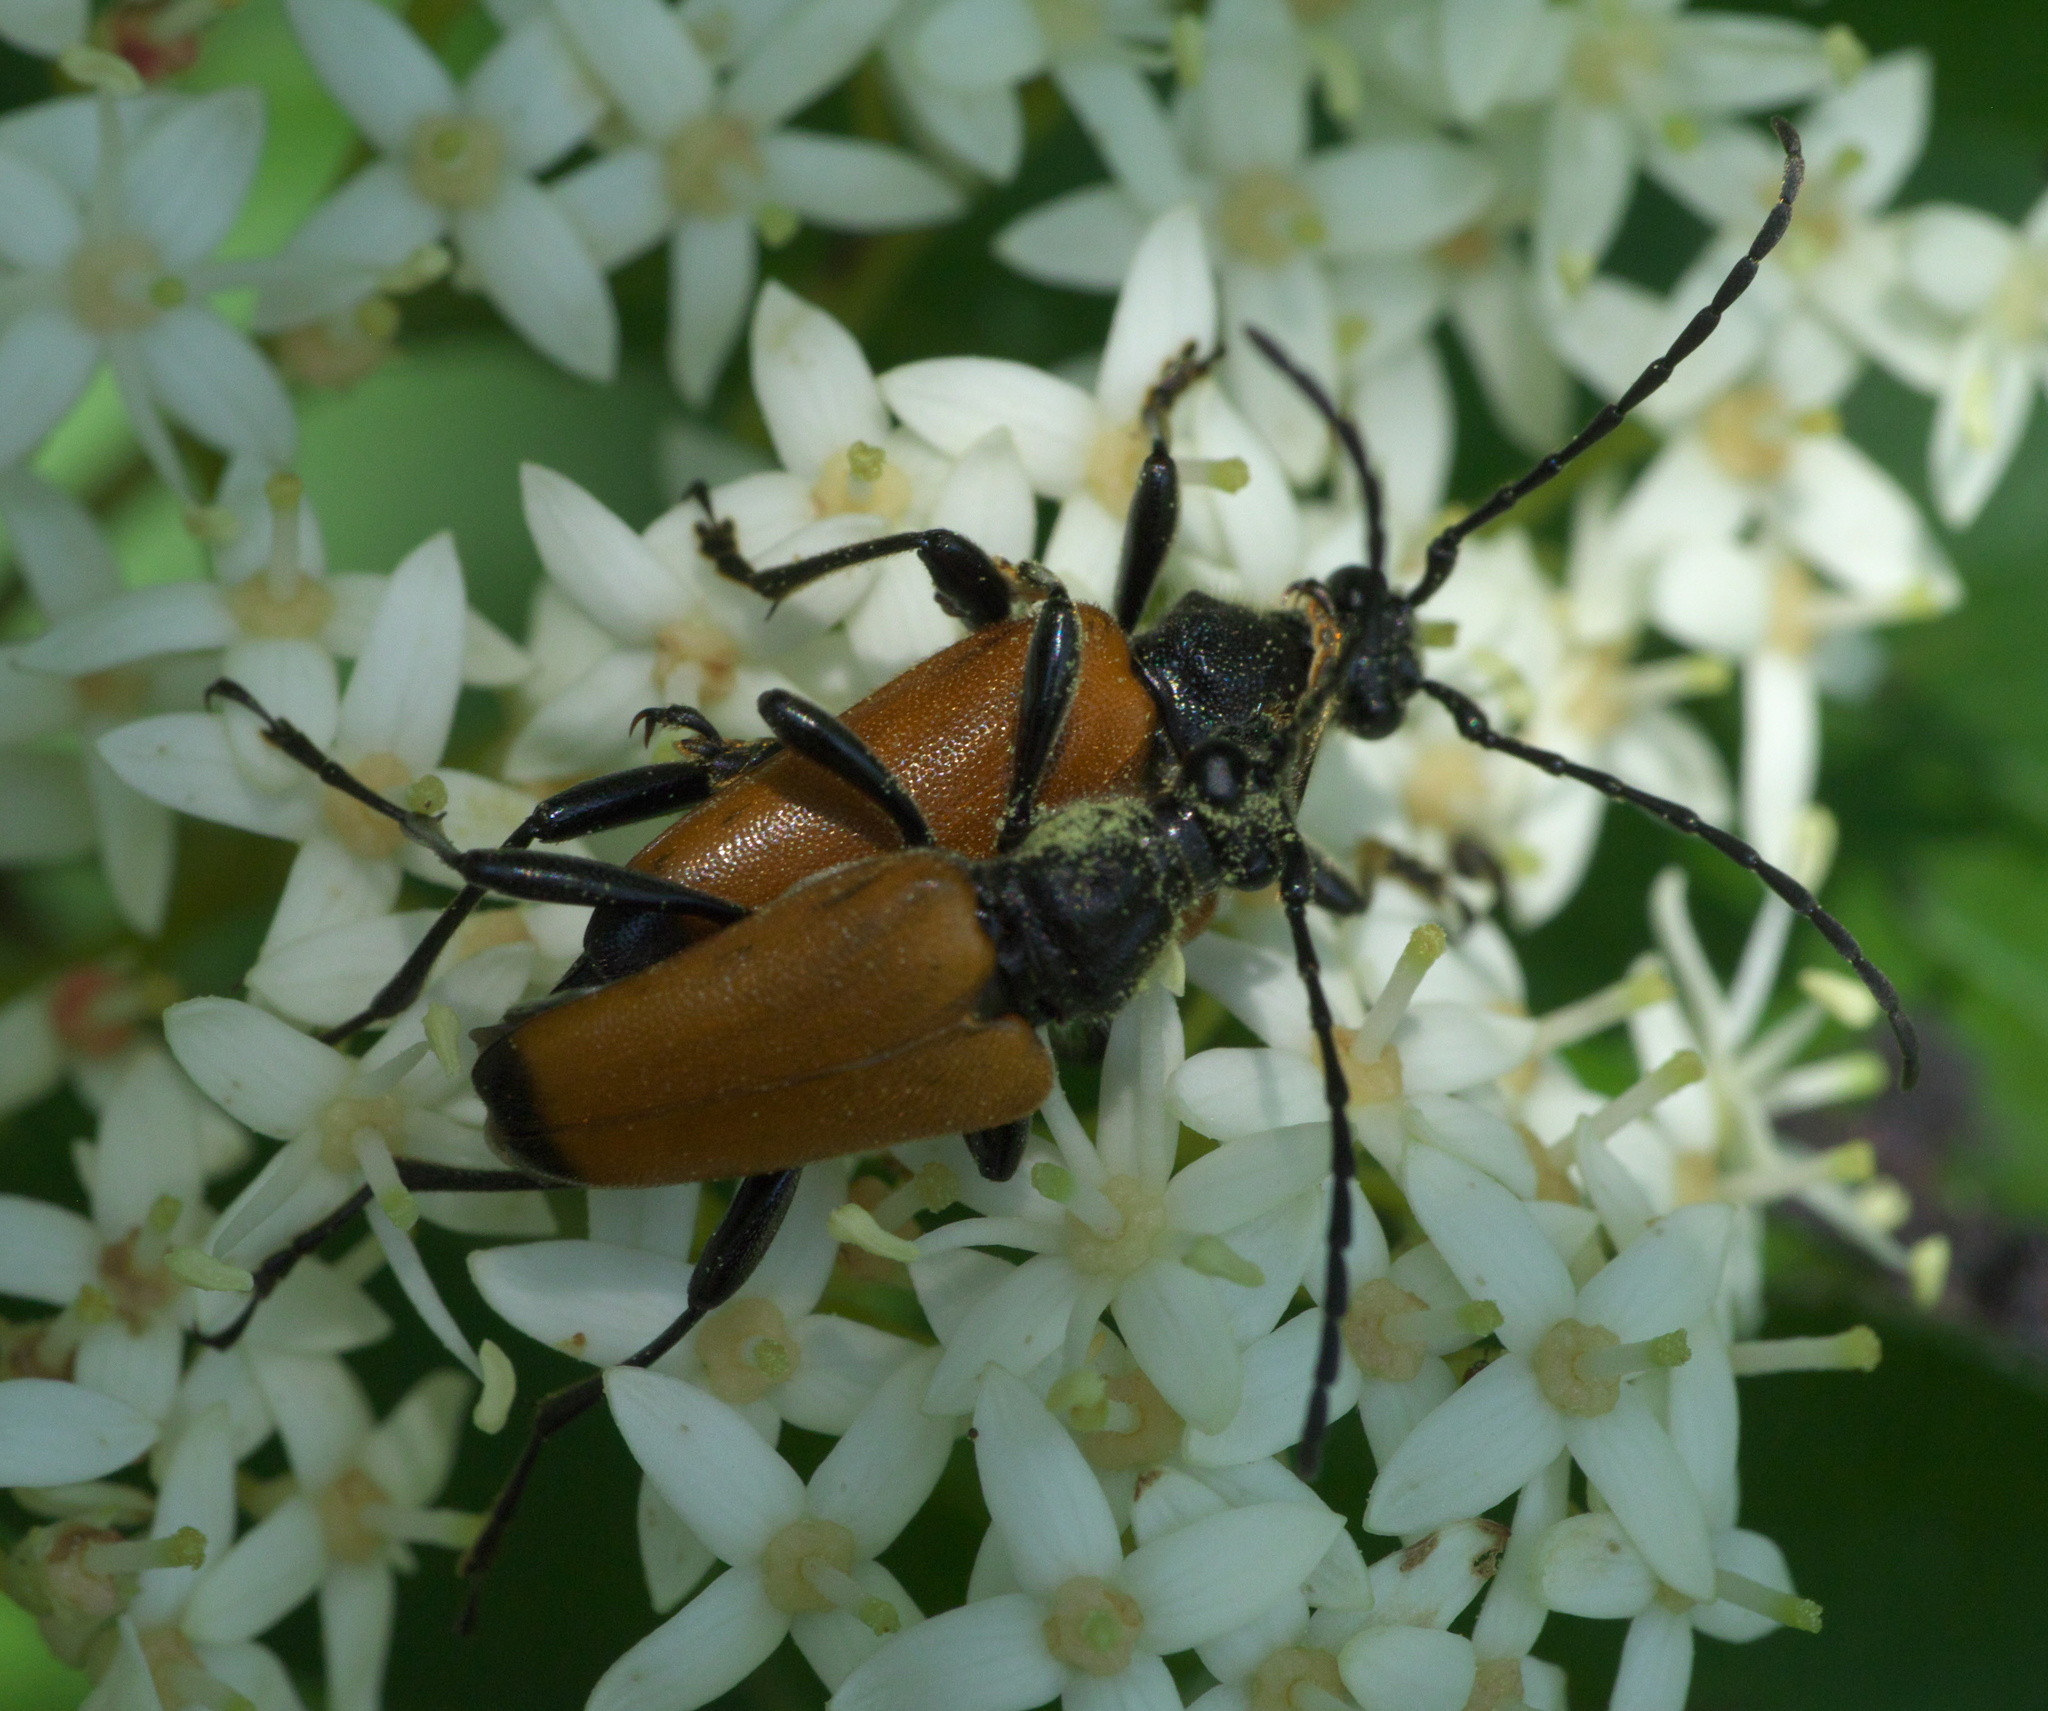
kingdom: Animalia
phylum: Arthropoda
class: Insecta
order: Coleoptera
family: Cerambycidae
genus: Trigonarthris
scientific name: Trigonarthris atrata
